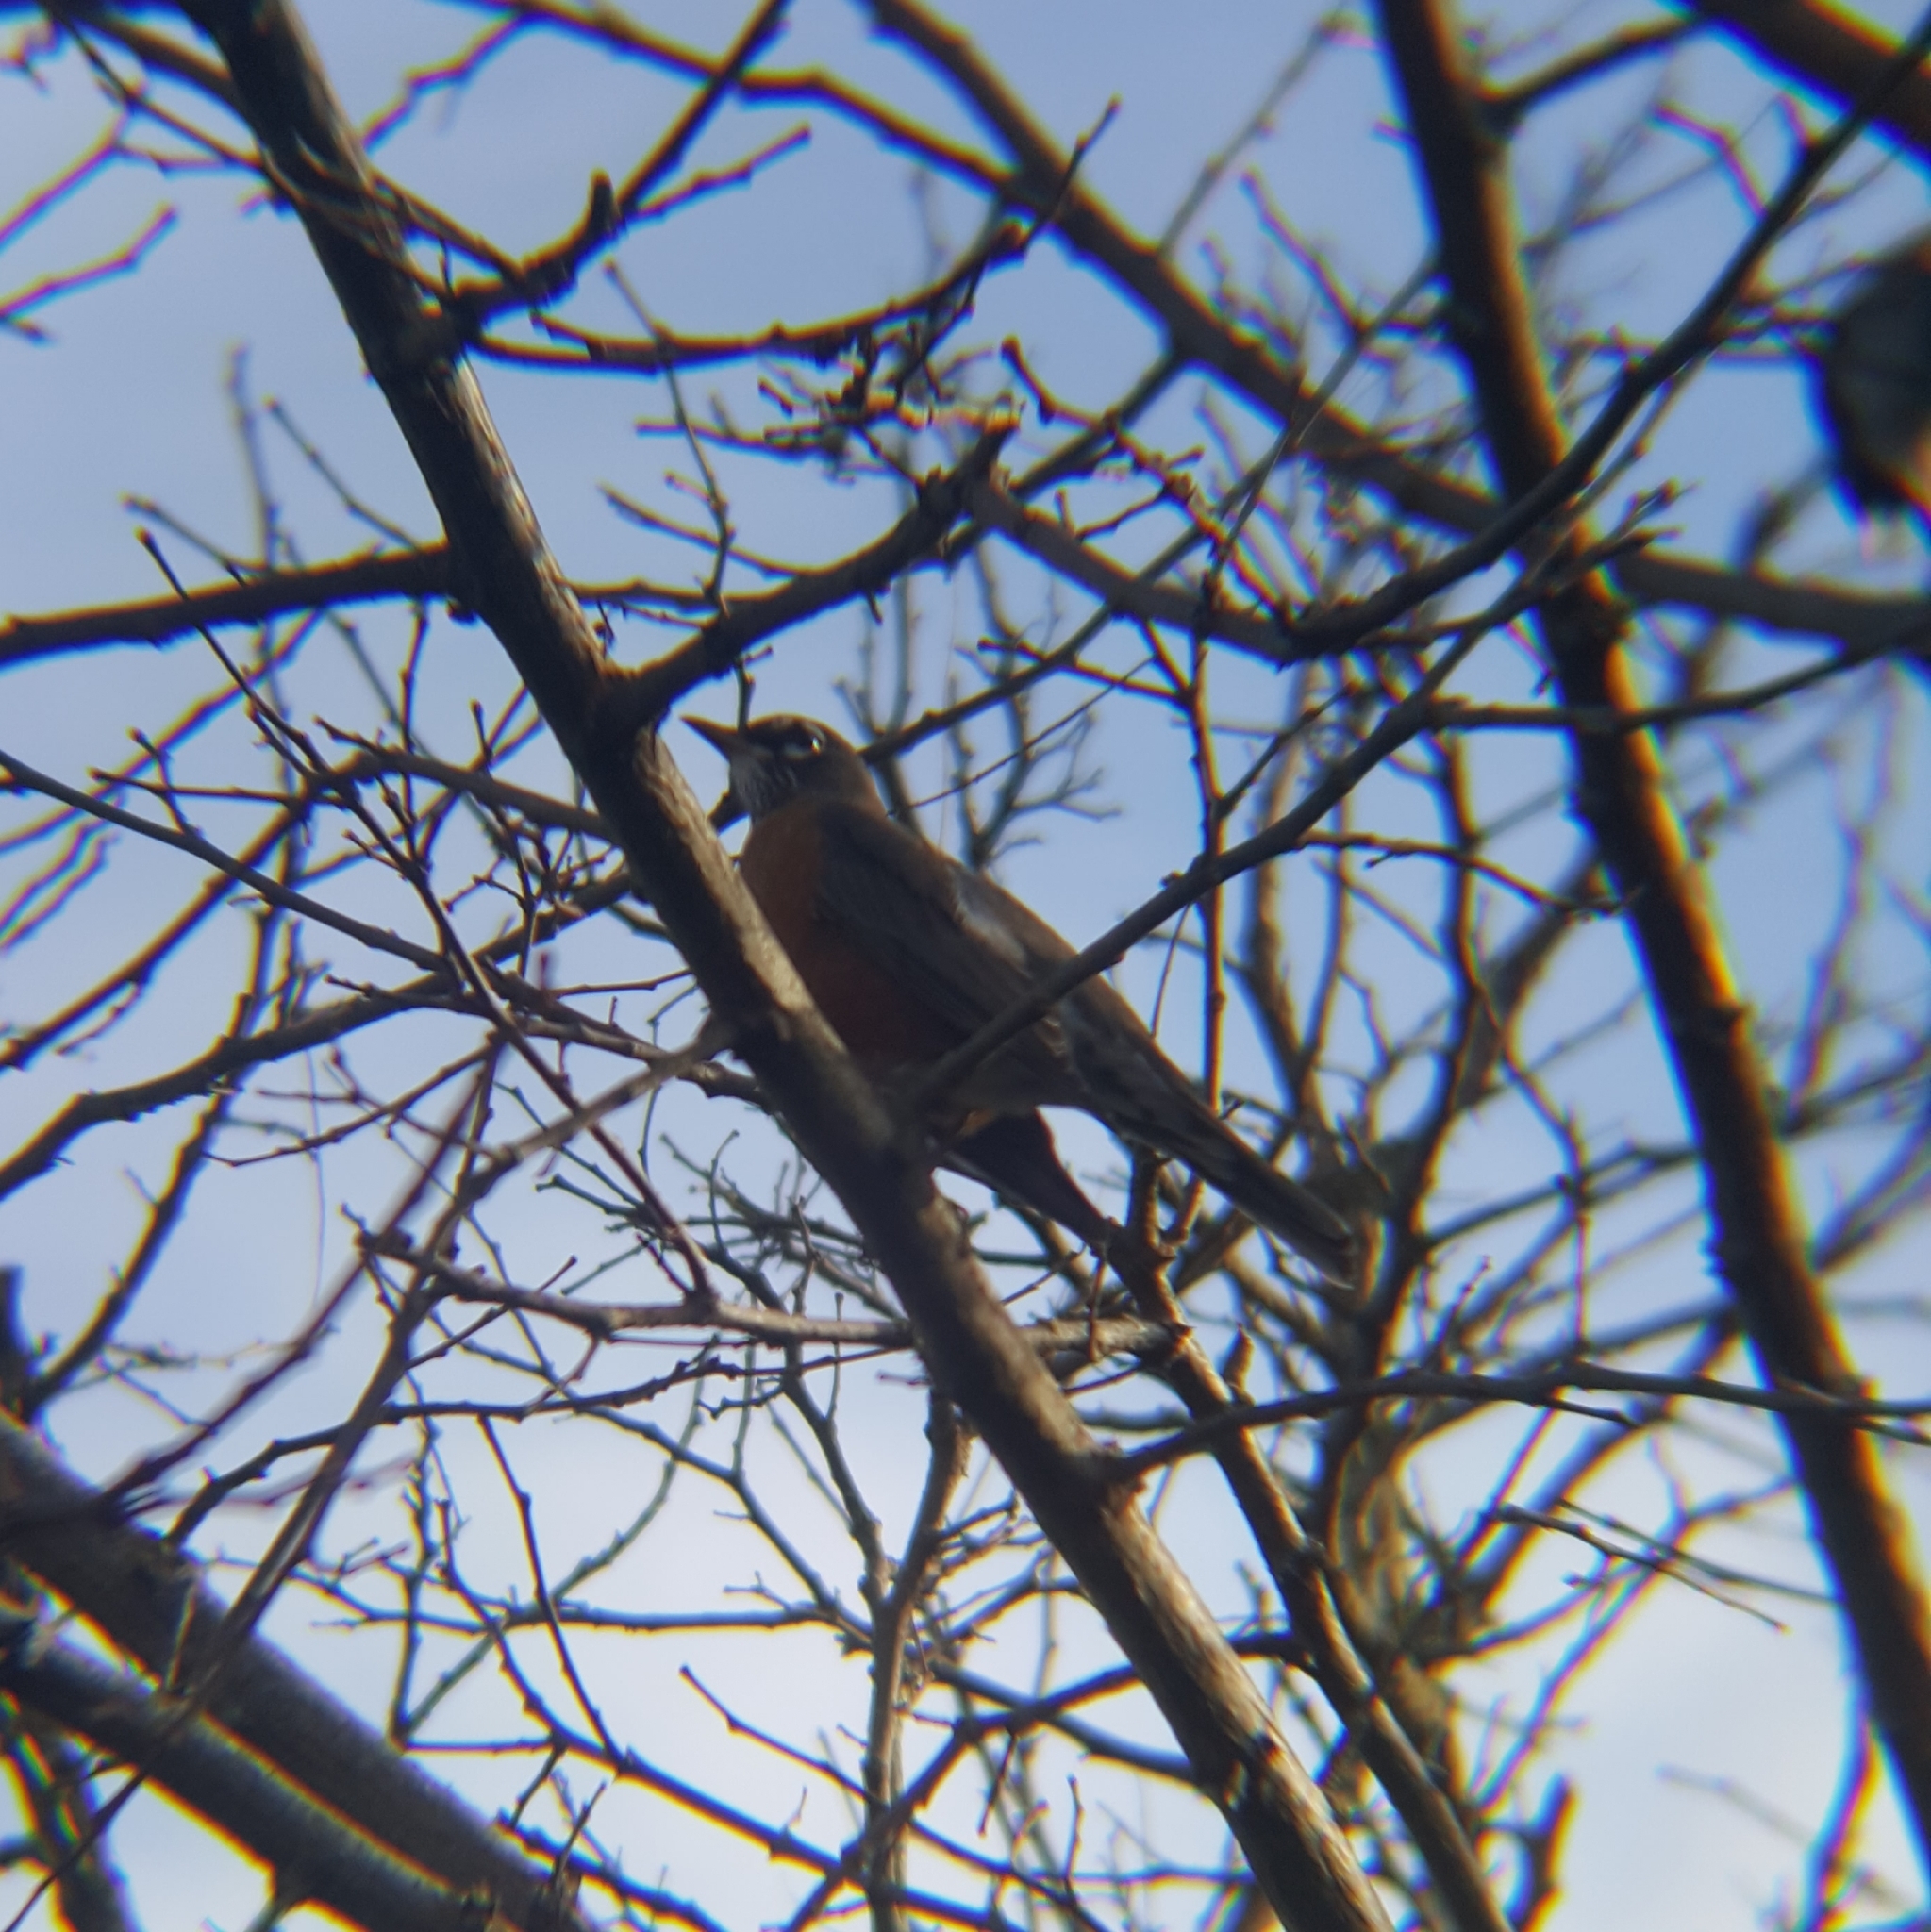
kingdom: Animalia
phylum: Chordata
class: Aves
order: Passeriformes
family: Turdidae
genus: Turdus
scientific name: Turdus migratorius
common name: American robin
